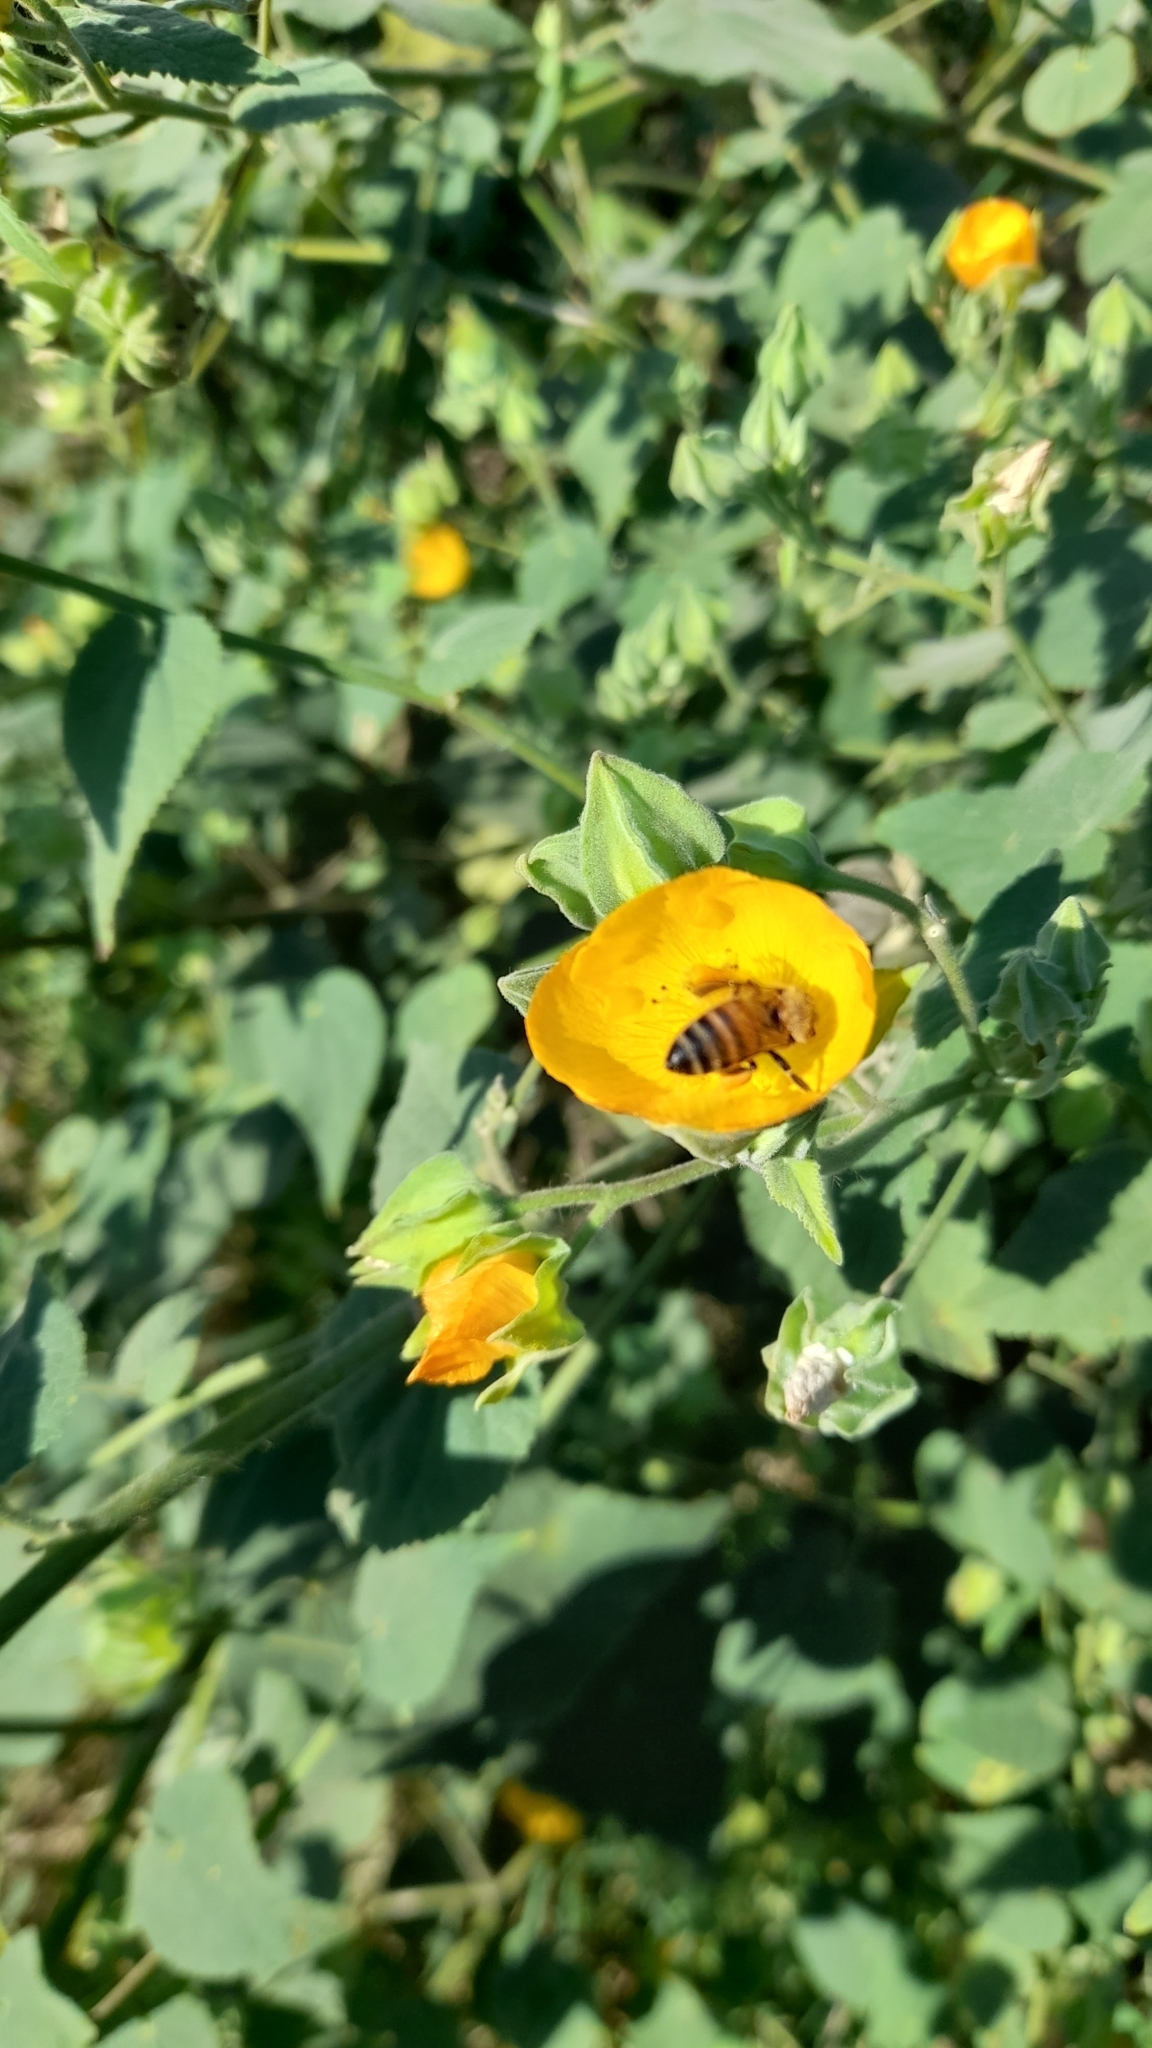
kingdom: Animalia
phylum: Arthropoda
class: Insecta
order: Hymenoptera
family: Apidae
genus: Apis
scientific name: Apis mellifera
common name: Honey bee
